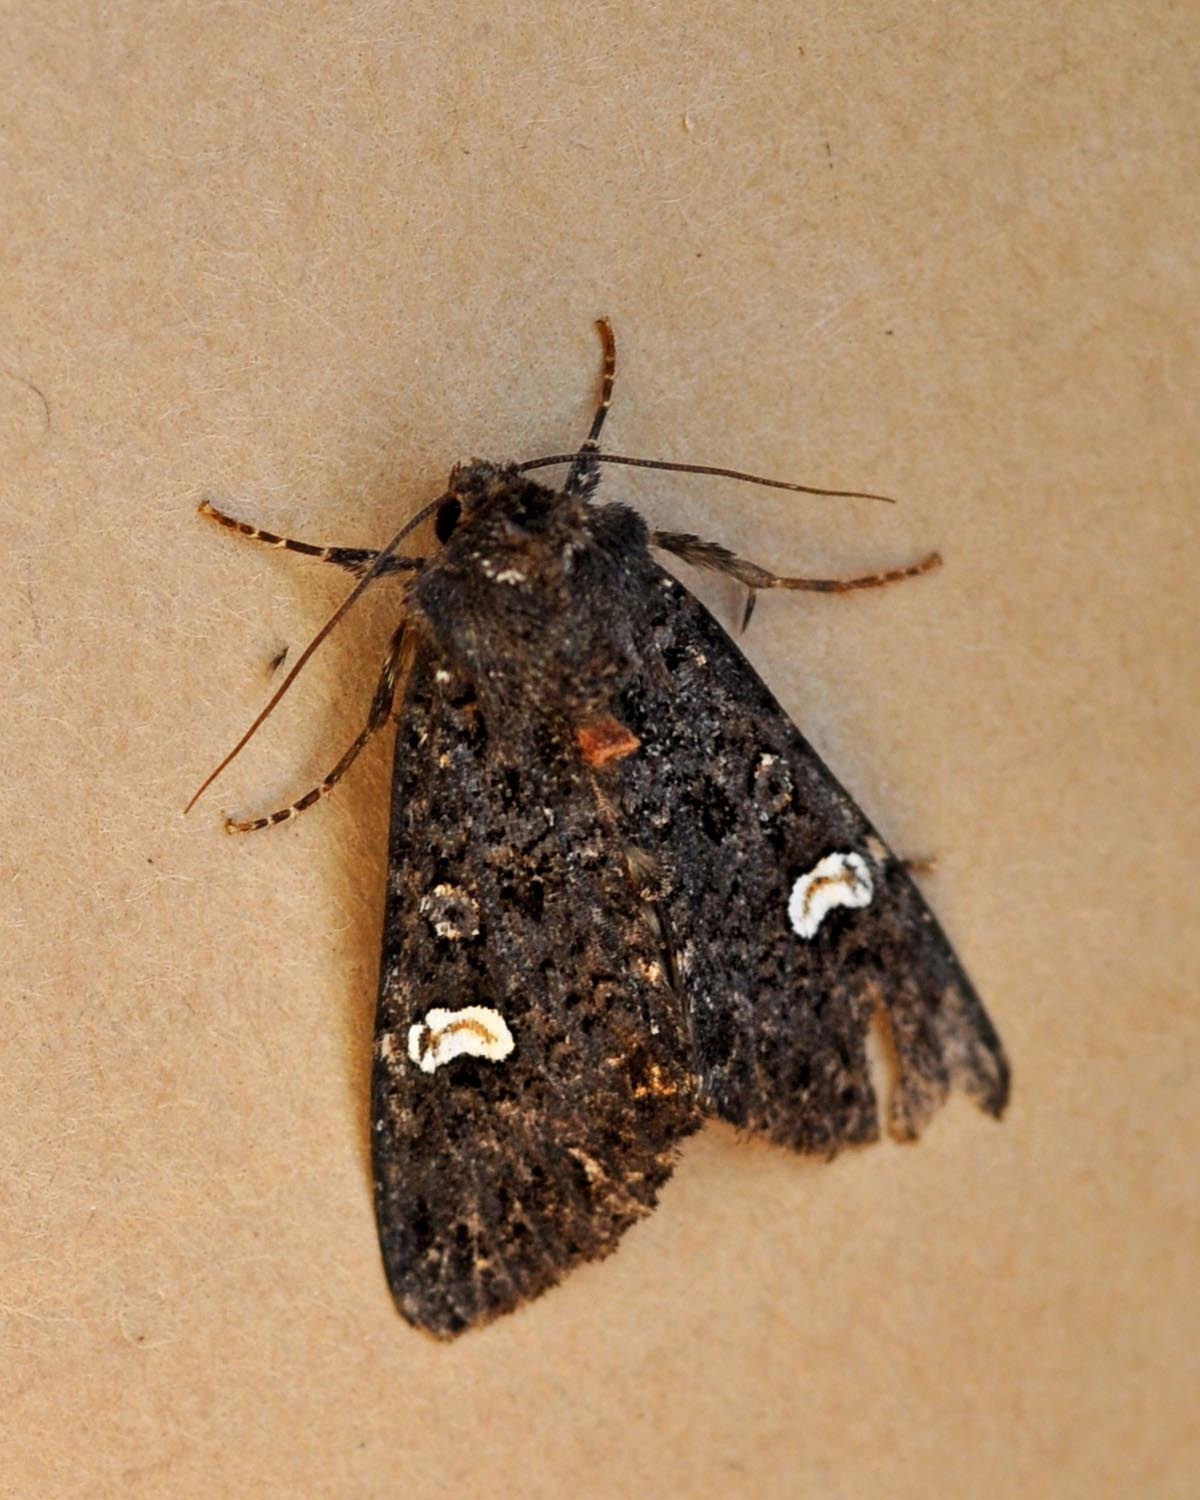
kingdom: Animalia
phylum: Arthropoda
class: Insecta
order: Lepidoptera
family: Noctuidae
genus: Melanchra
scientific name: Melanchra persicariae
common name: Dot moth
